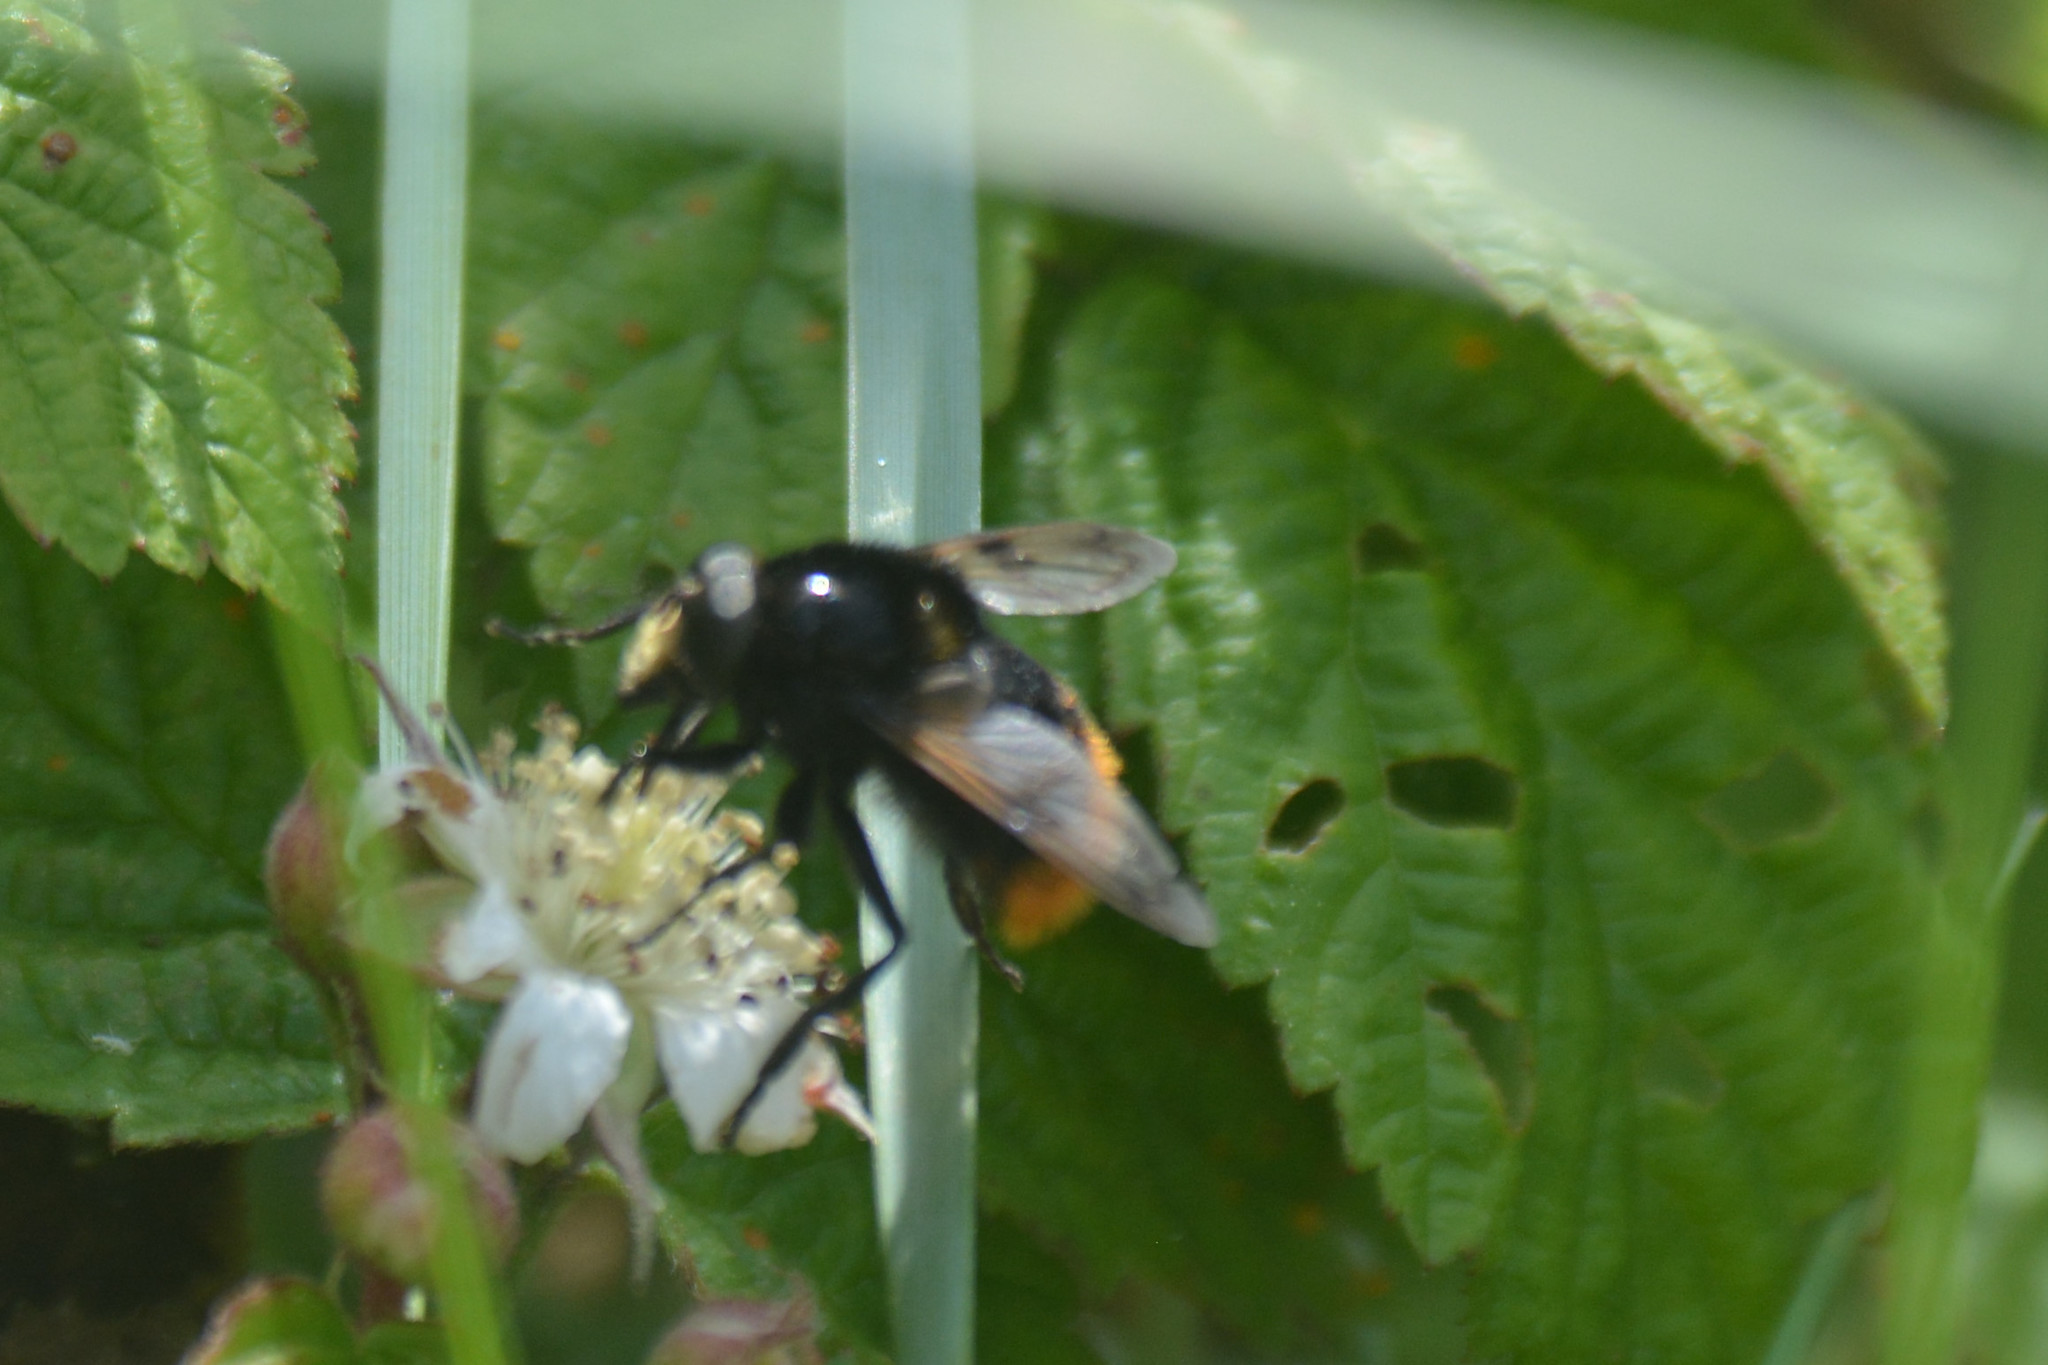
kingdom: Animalia
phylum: Arthropoda
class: Insecta
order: Diptera
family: Syrphidae
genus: Volucella
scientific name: Volucella bombylans
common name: Bumble bee hover fly
